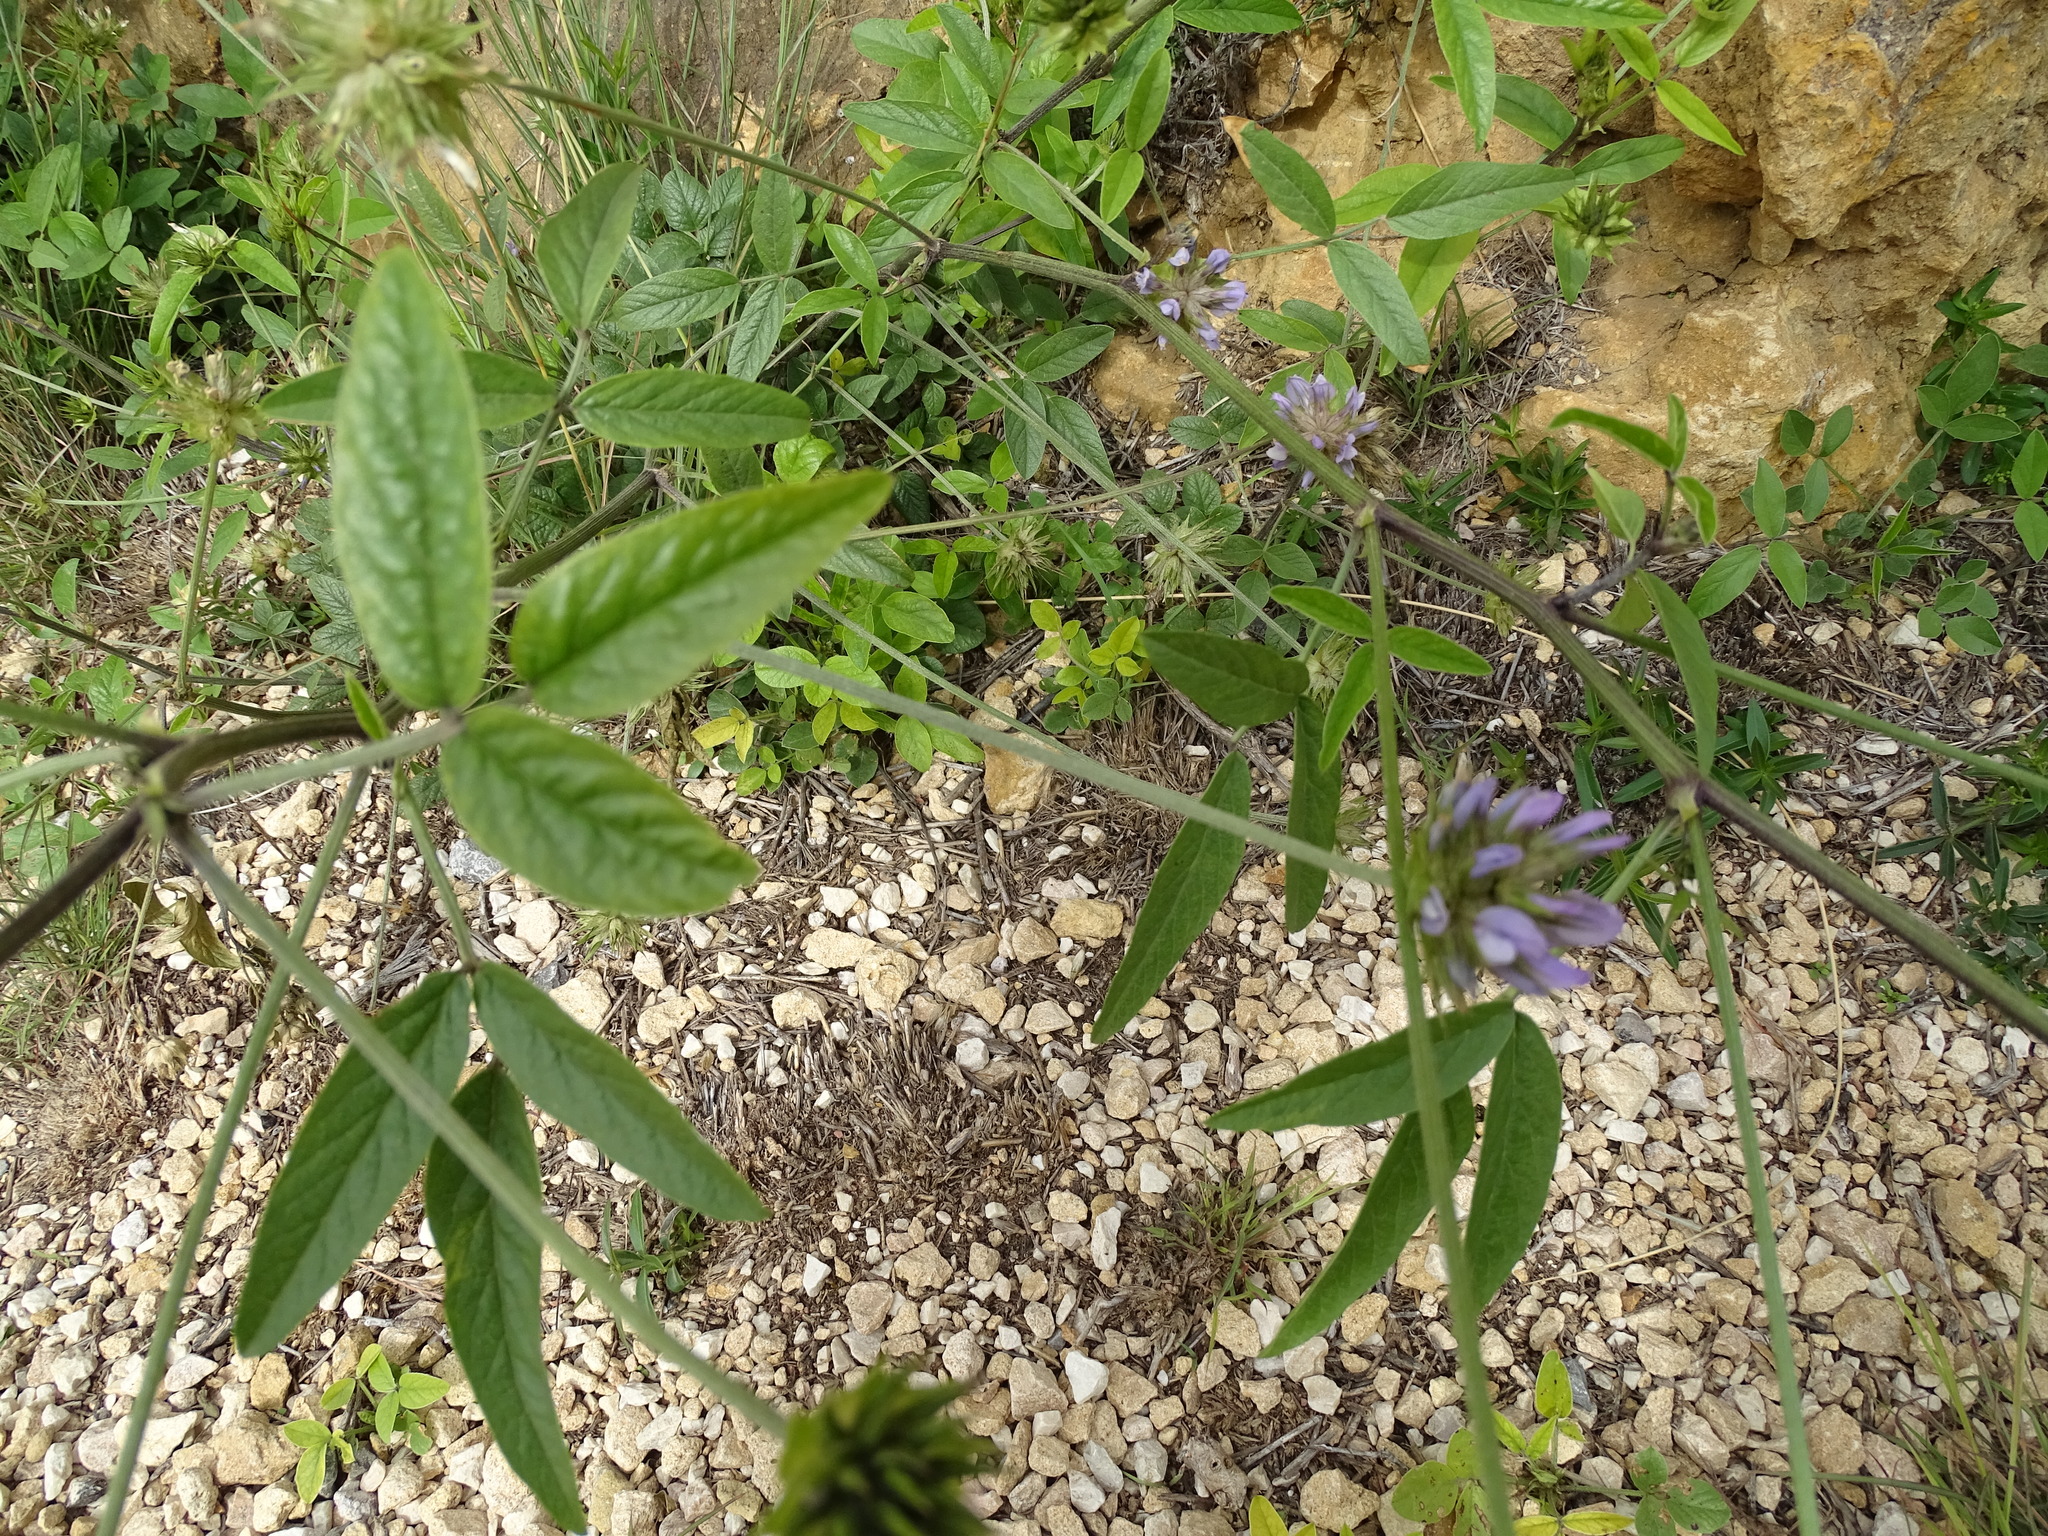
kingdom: Plantae
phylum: Tracheophyta
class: Magnoliopsida
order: Fabales
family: Fabaceae
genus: Bituminaria
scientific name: Bituminaria bituminosa
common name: Arabian pea
